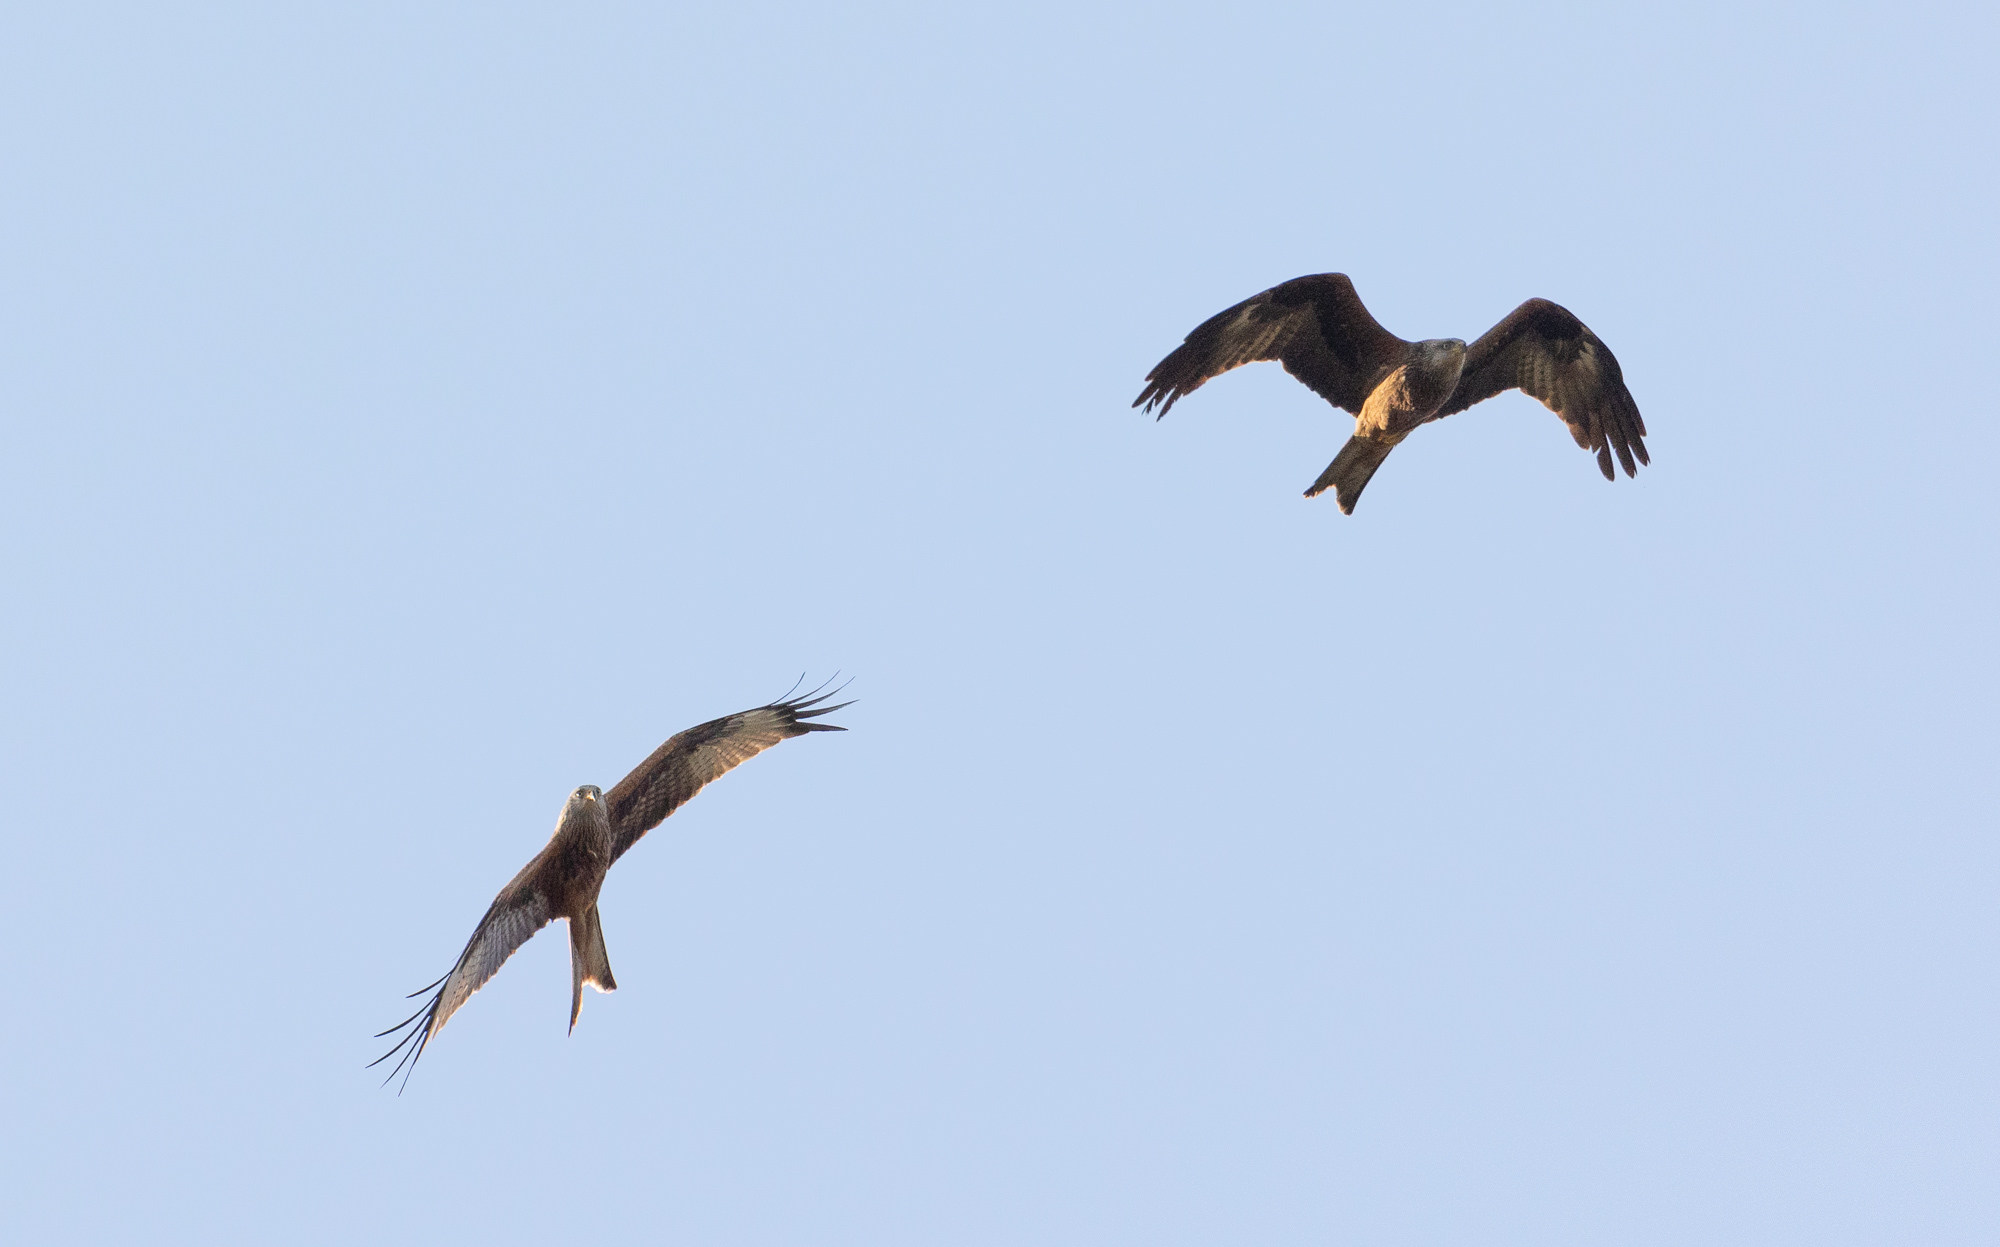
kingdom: Animalia
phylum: Chordata
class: Aves
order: Accipitriformes
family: Accipitridae
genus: Milvus
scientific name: Milvus milvus
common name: Red kite
